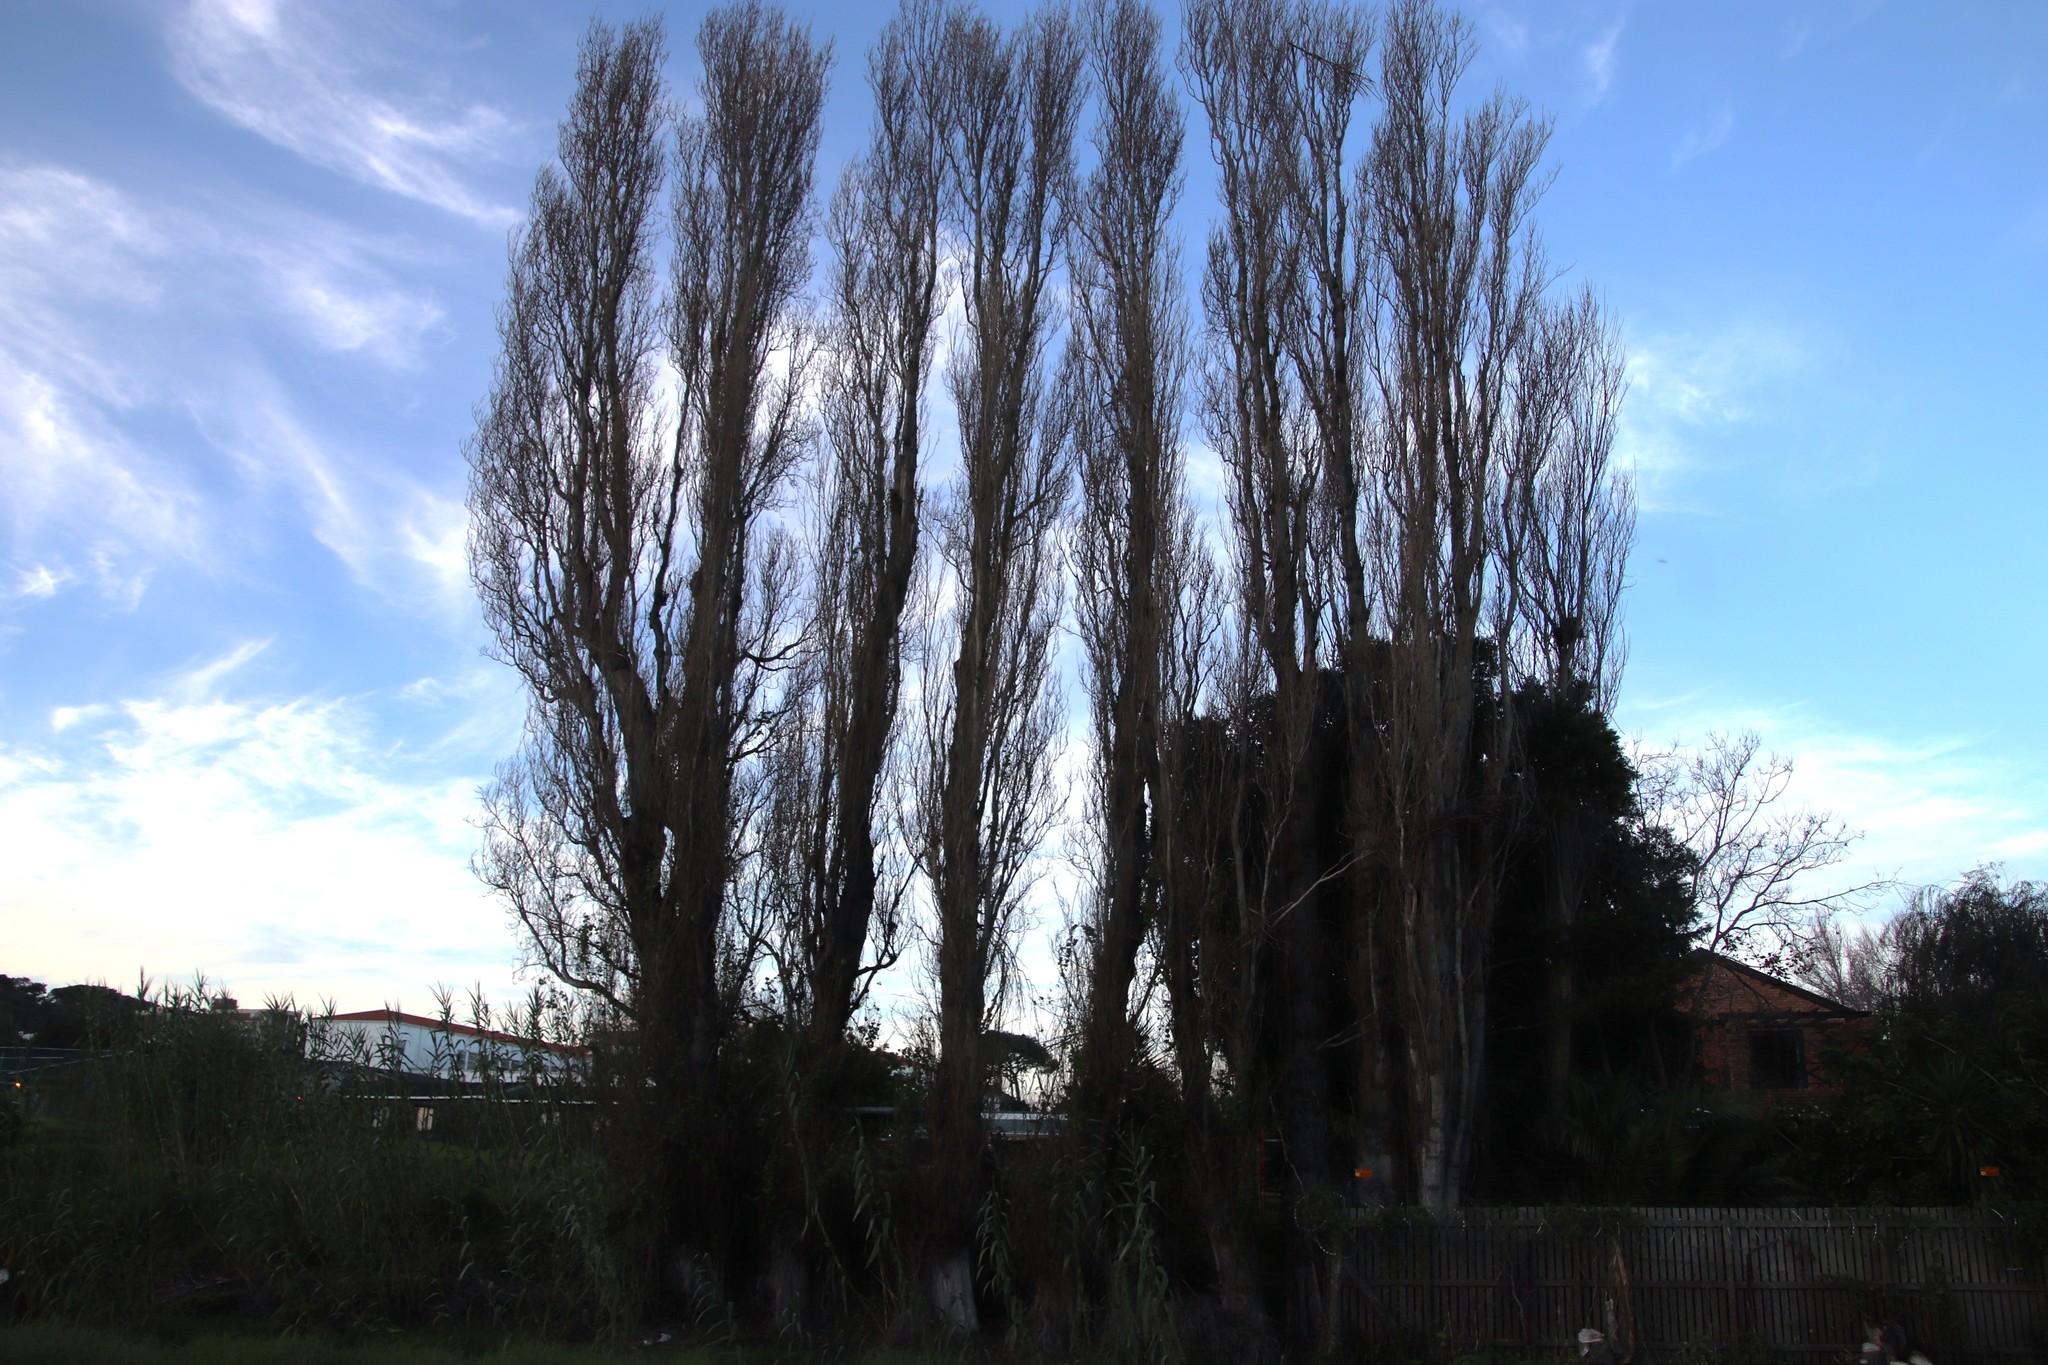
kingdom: Plantae
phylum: Tracheophyta
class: Magnoliopsida
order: Malpighiales
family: Salicaceae
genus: Populus
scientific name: Populus nigra
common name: Black poplar
